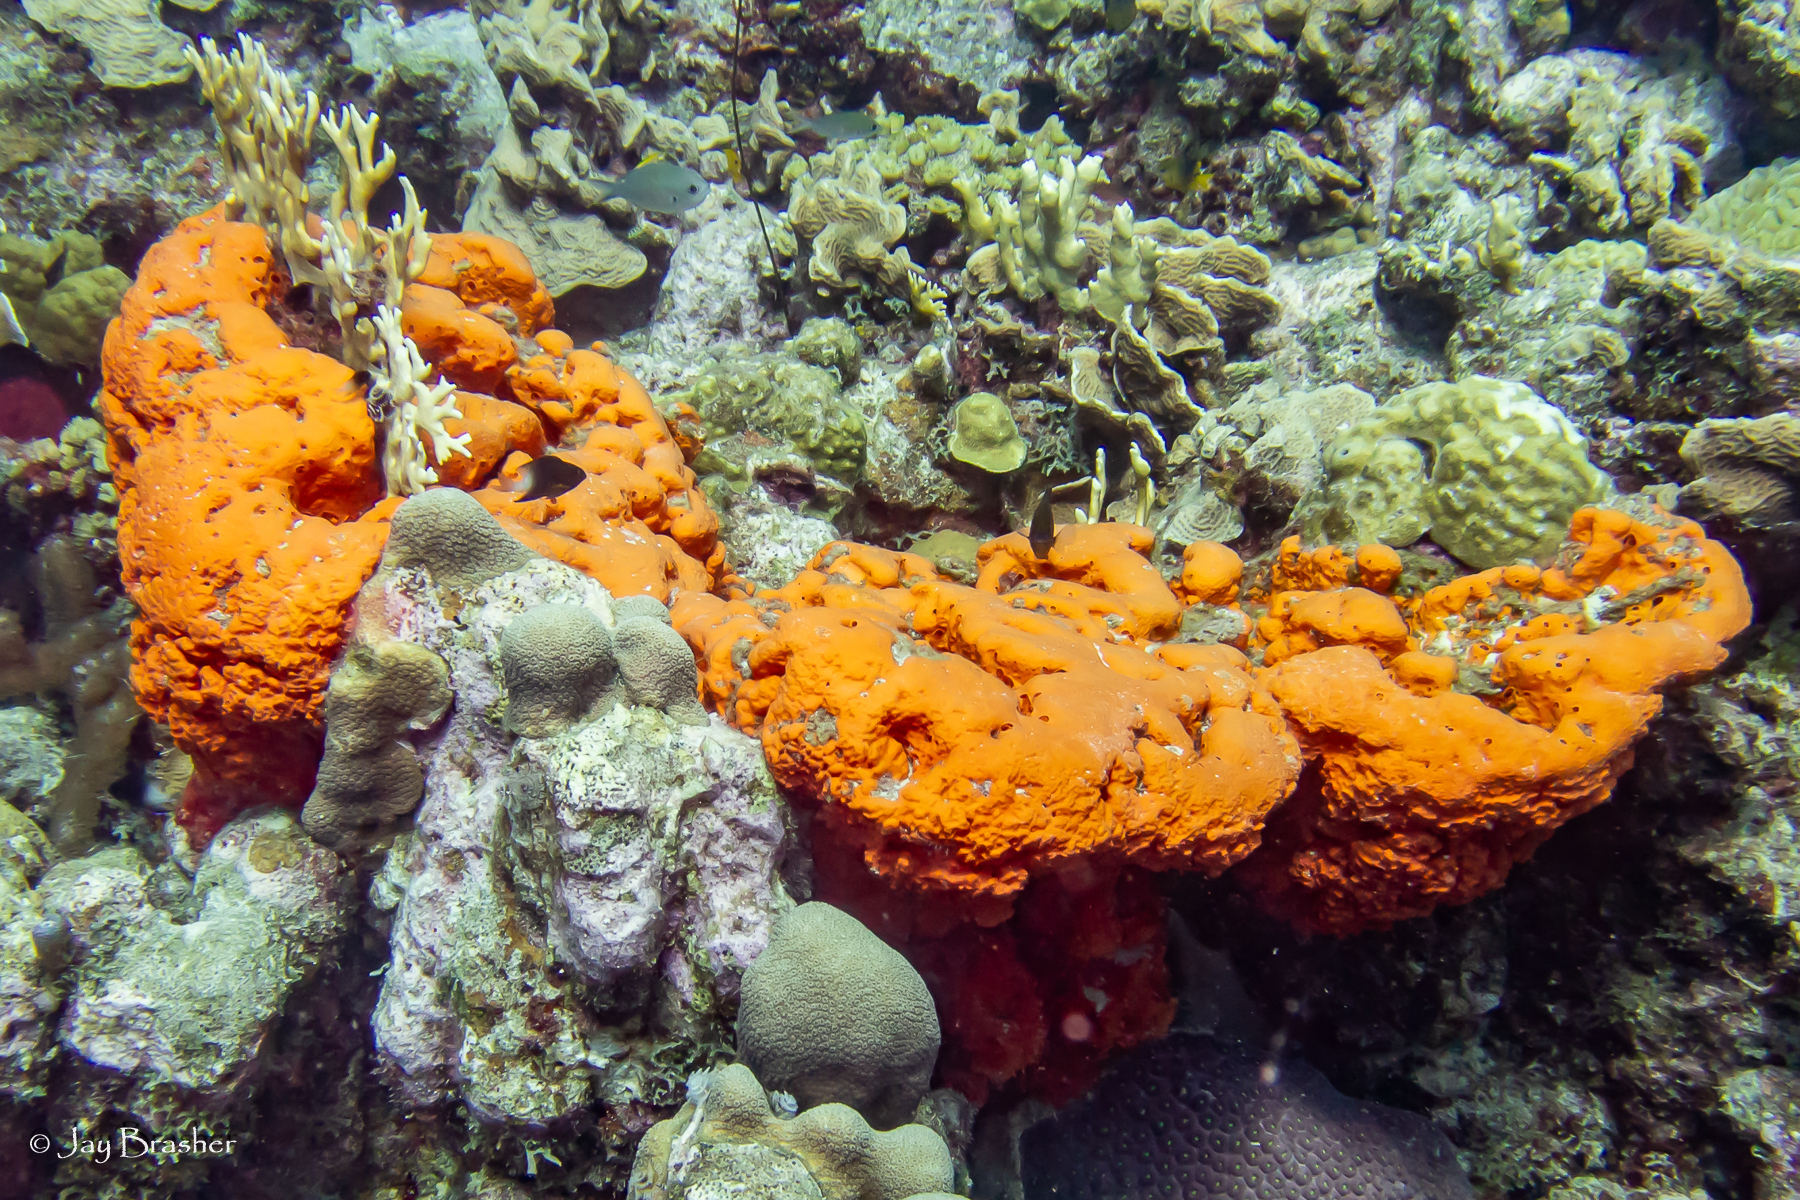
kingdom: Animalia
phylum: Porifera
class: Demospongiae
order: Agelasida
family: Agelasidae
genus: Agelas
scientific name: Agelas clathrodes
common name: Orange elephant ear sponge
